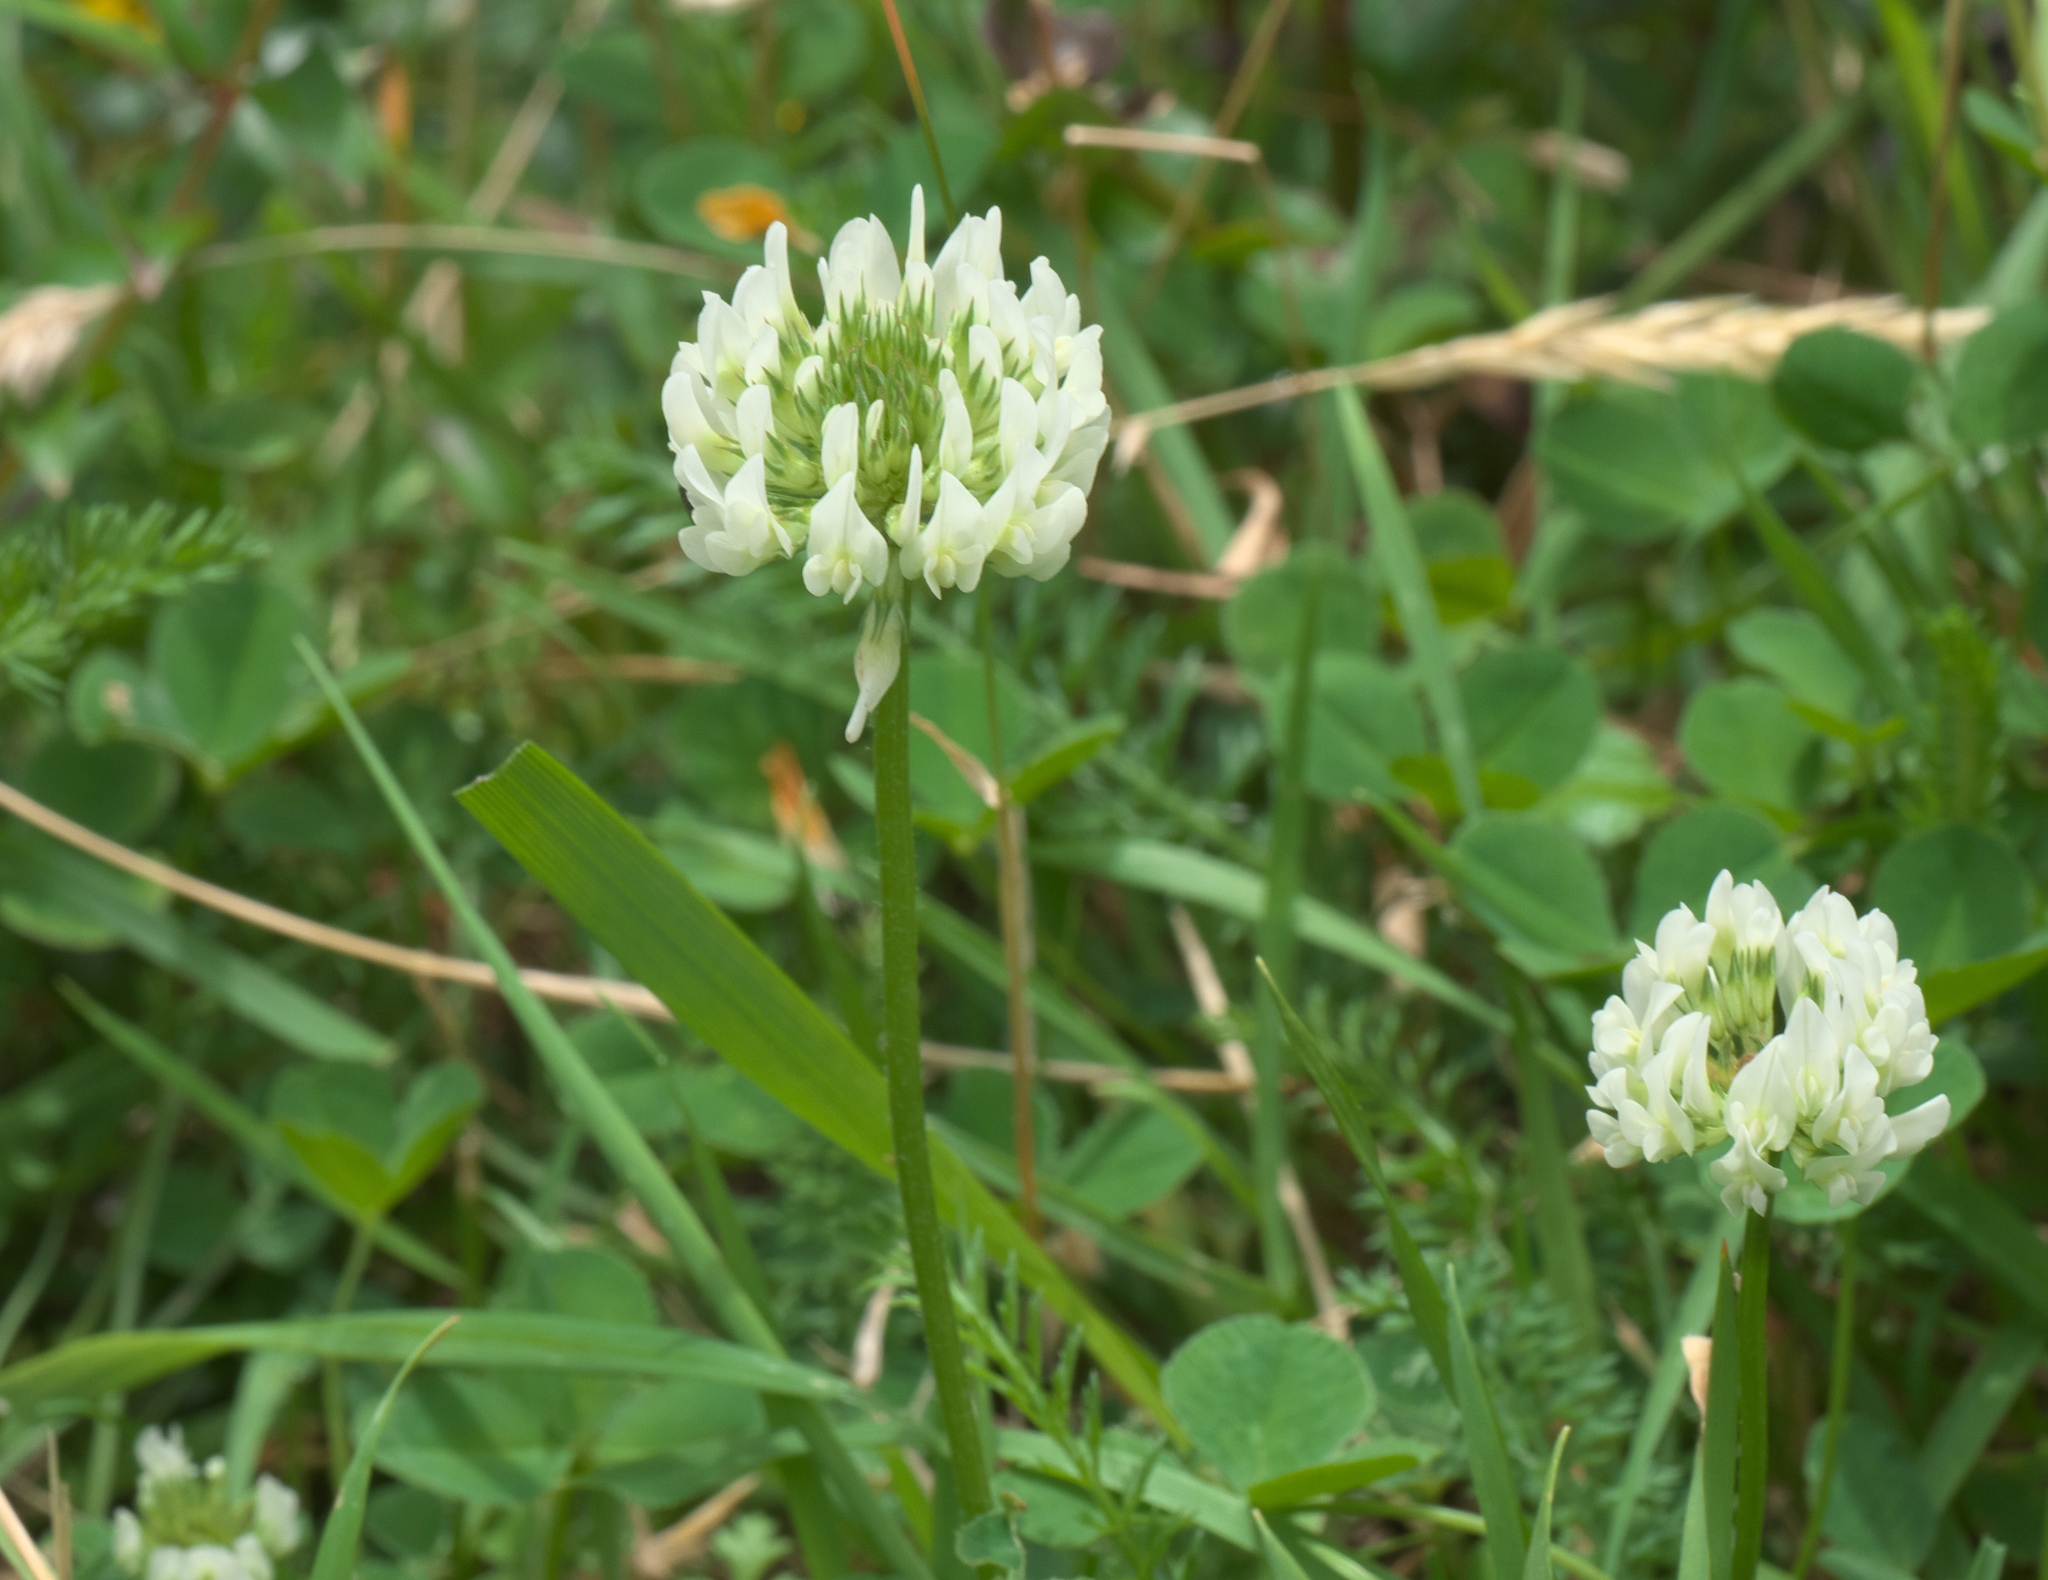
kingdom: Plantae
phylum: Tracheophyta
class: Magnoliopsida
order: Fabales
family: Fabaceae
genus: Trifolium
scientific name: Trifolium repens
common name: White clover
